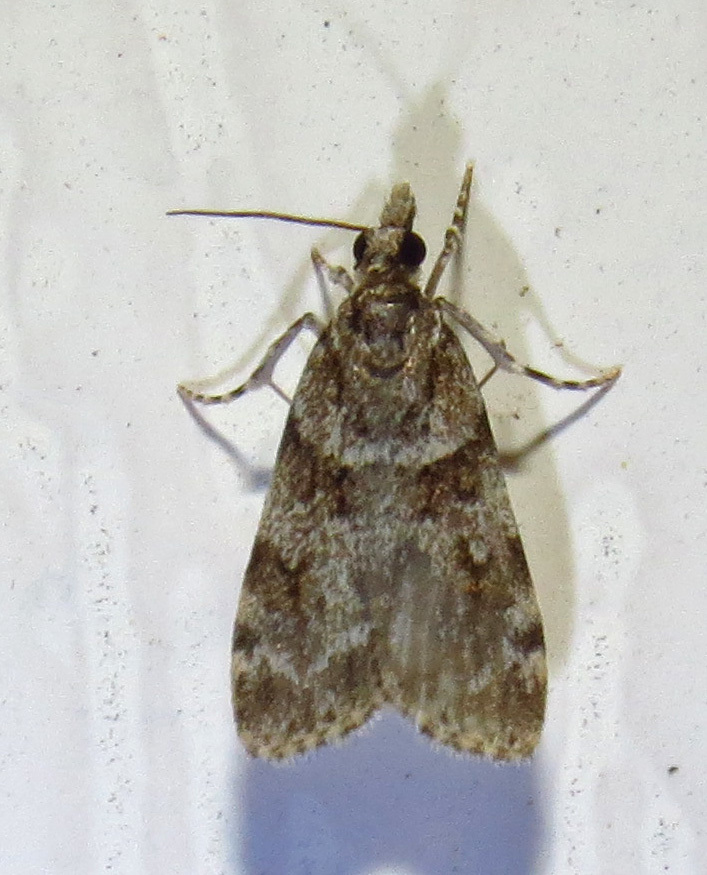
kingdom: Animalia
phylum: Arthropoda
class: Insecta
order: Lepidoptera
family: Crambidae
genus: Scoparia
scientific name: Scoparia biplagialis
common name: Double-striped scoparia moth
